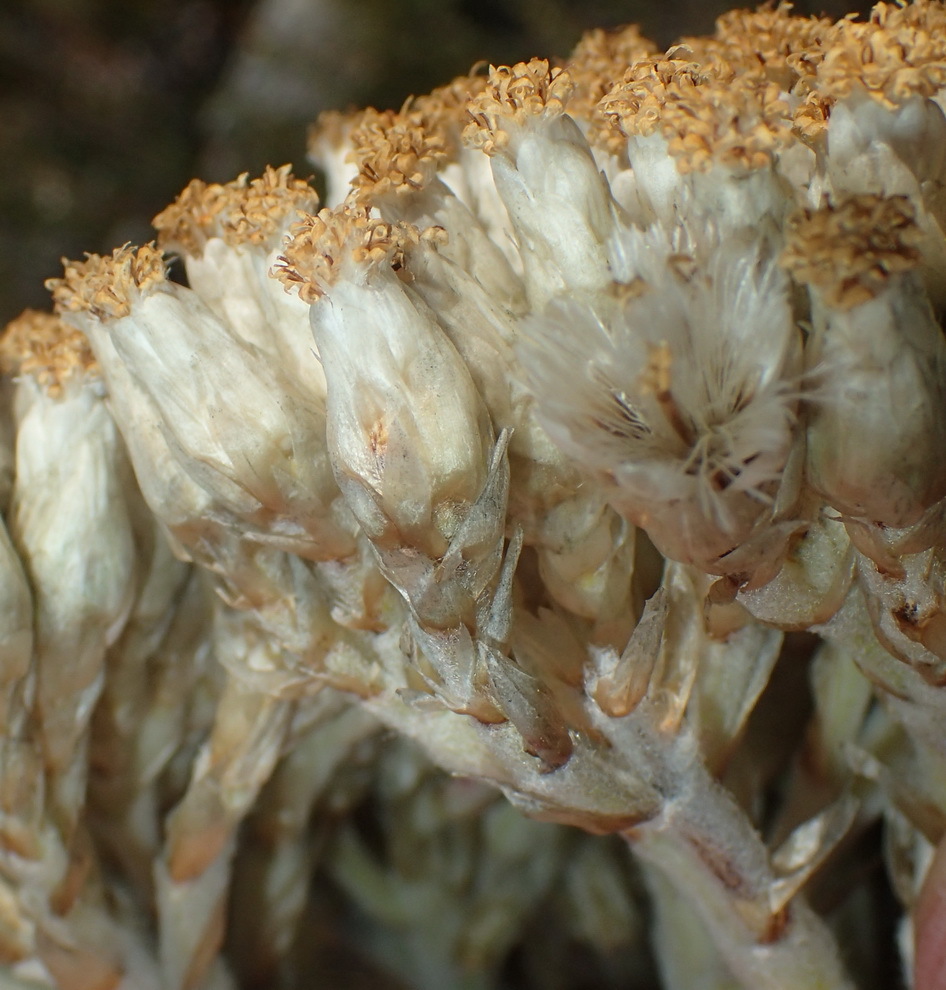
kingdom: Plantae
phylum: Tracheophyta
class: Magnoliopsida
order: Asterales
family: Asteraceae
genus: Syncarpha
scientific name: Syncarpha milleflora
